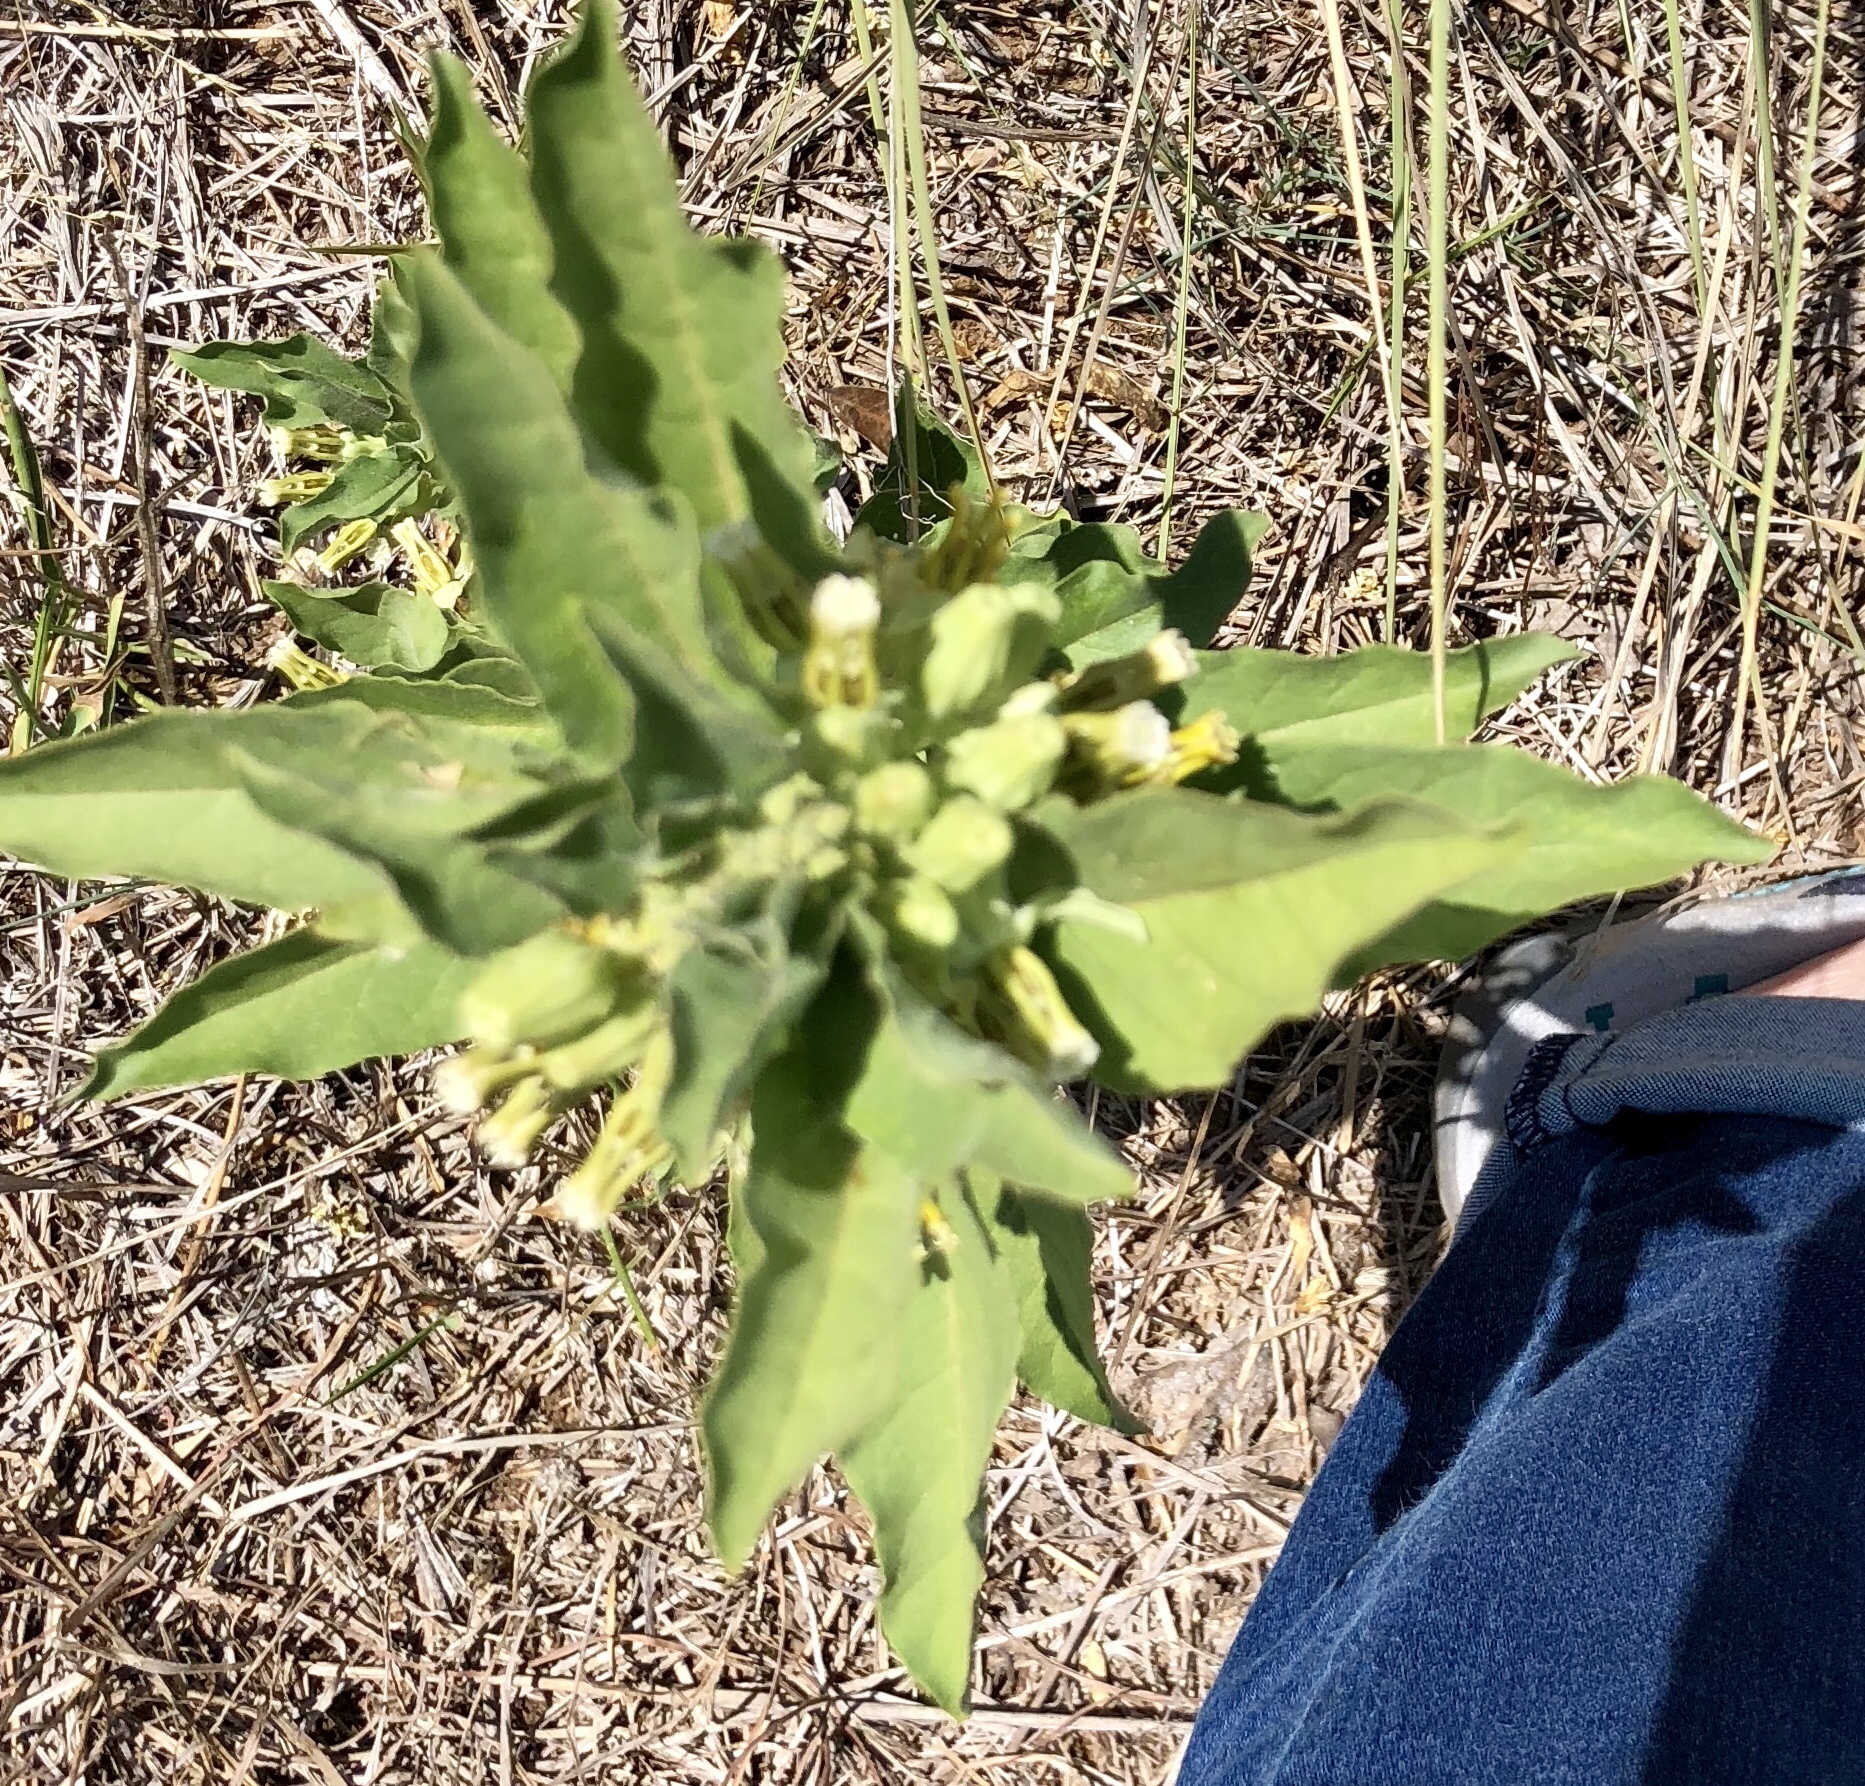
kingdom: Plantae
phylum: Tracheophyta
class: Magnoliopsida
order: Gentianales
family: Apocynaceae
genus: Asclepias
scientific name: Asclepias oenotheroides
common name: Zizotes milkweed
